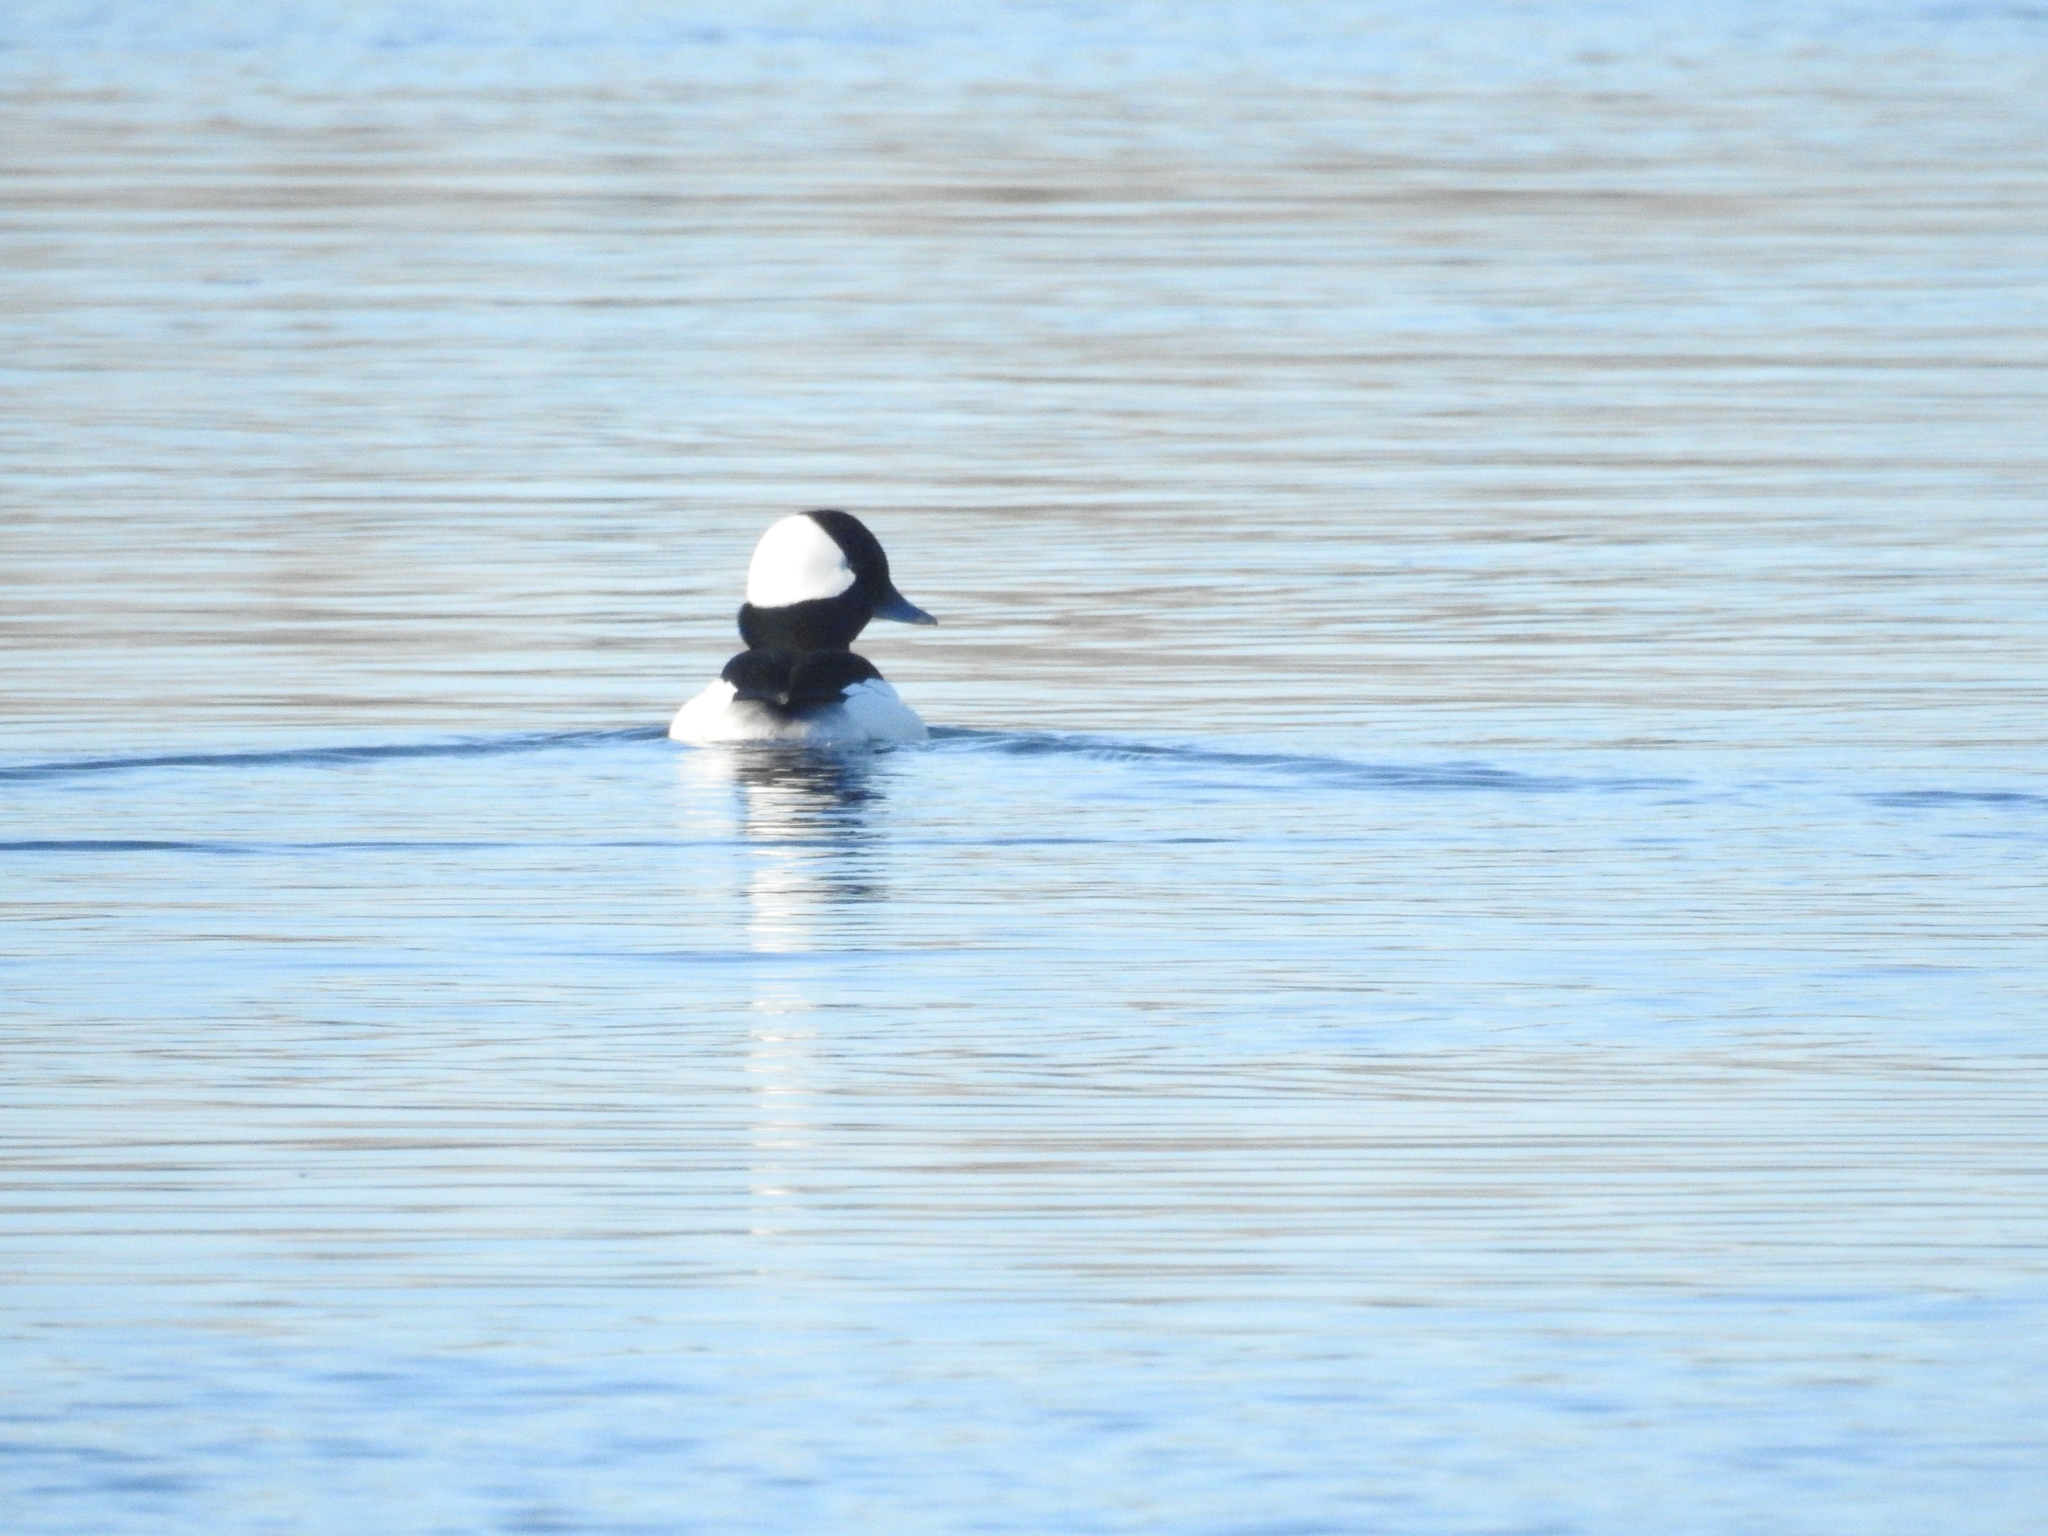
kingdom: Animalia
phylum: Chordata
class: Aves
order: Anseriformes
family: Anatidae
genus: Bucephala
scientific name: Bucephala albeola
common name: Bufflehead
